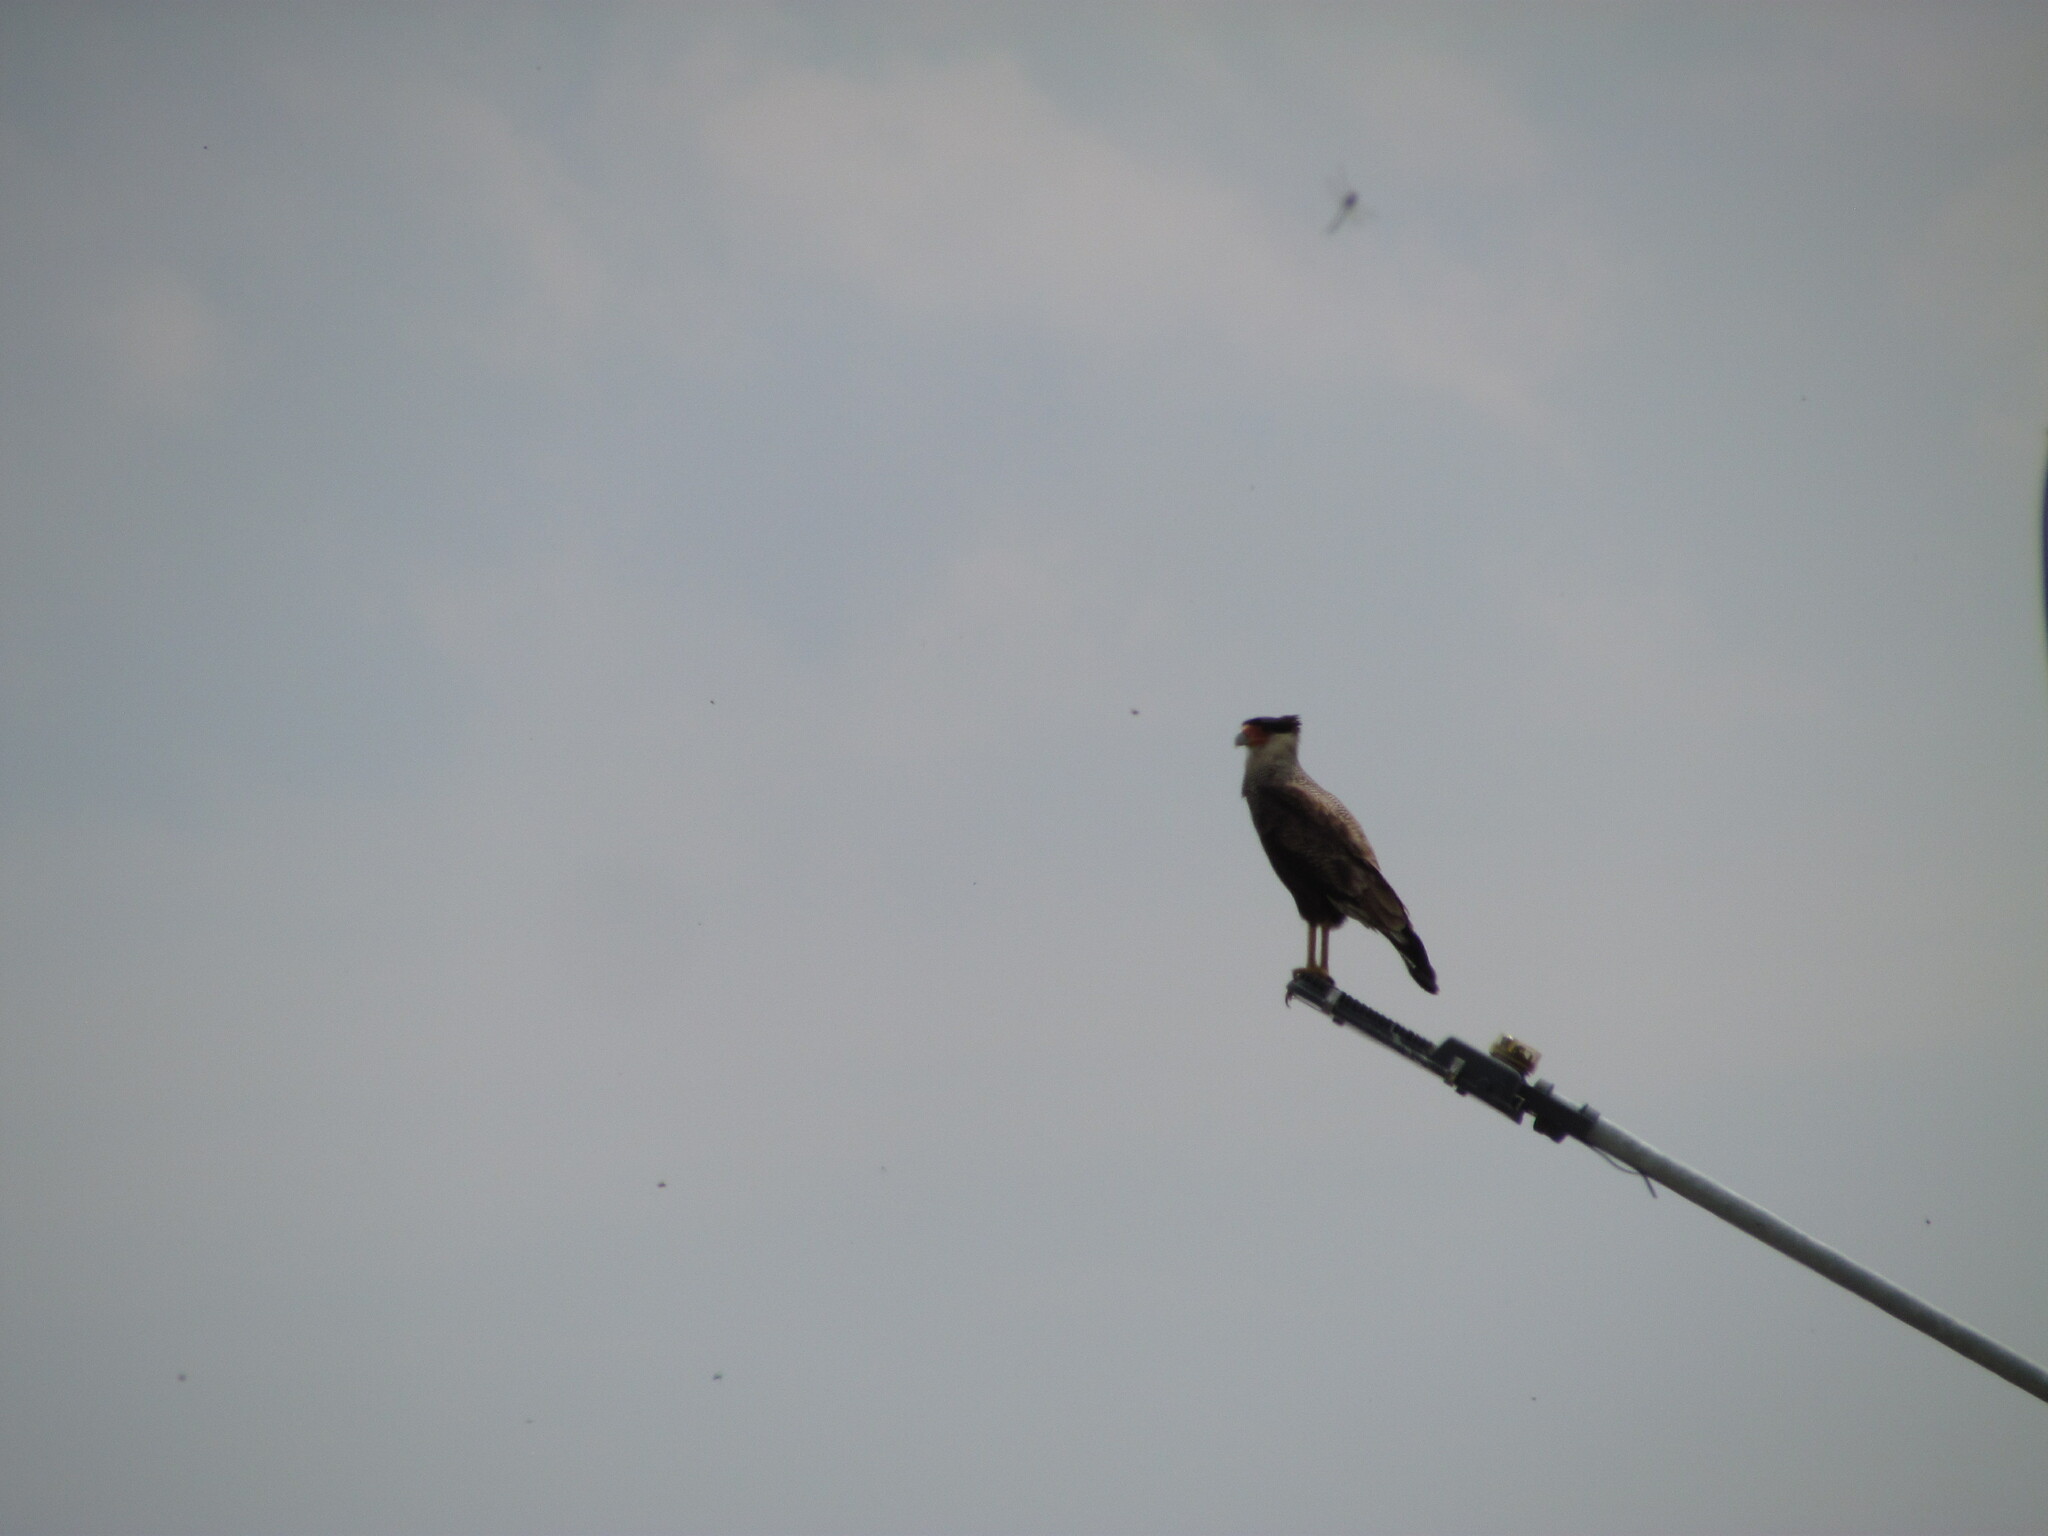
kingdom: Animalia
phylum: Chordata
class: Aves
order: Falconiformes
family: Falconidae
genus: Caracara
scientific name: Caracara plancus
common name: Southern caracara
